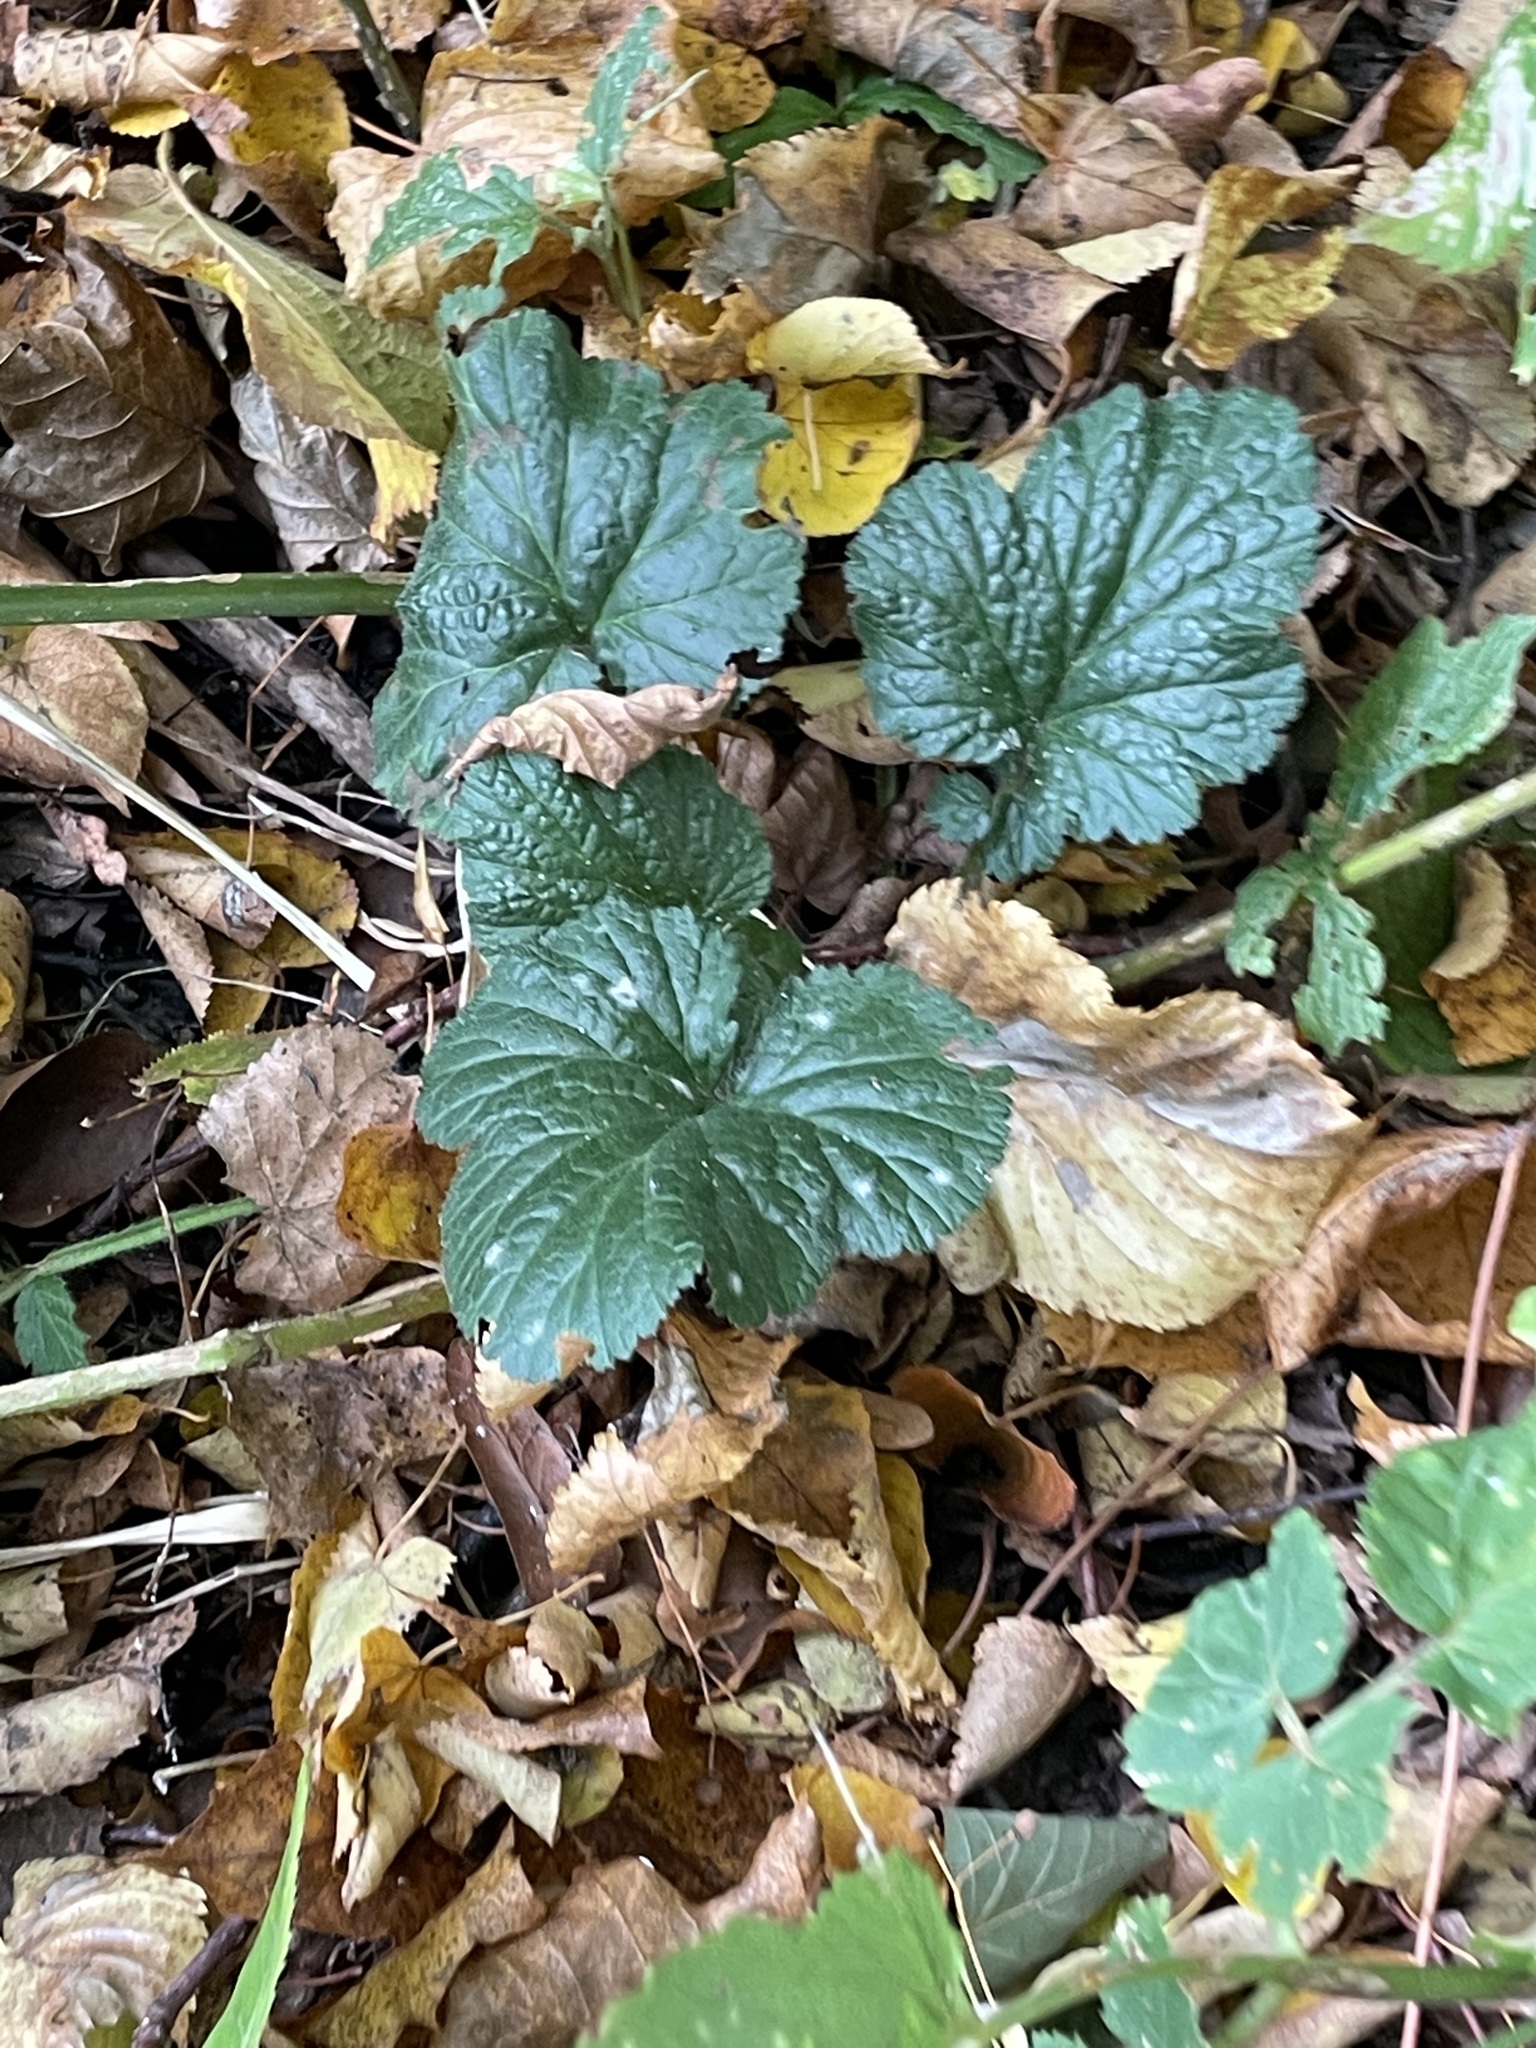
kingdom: Plantae
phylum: Tracheophyta
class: Magnoliopsida
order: Rosales
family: Rosaceae
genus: Geum
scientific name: Geum urbanum
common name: Wood avens
